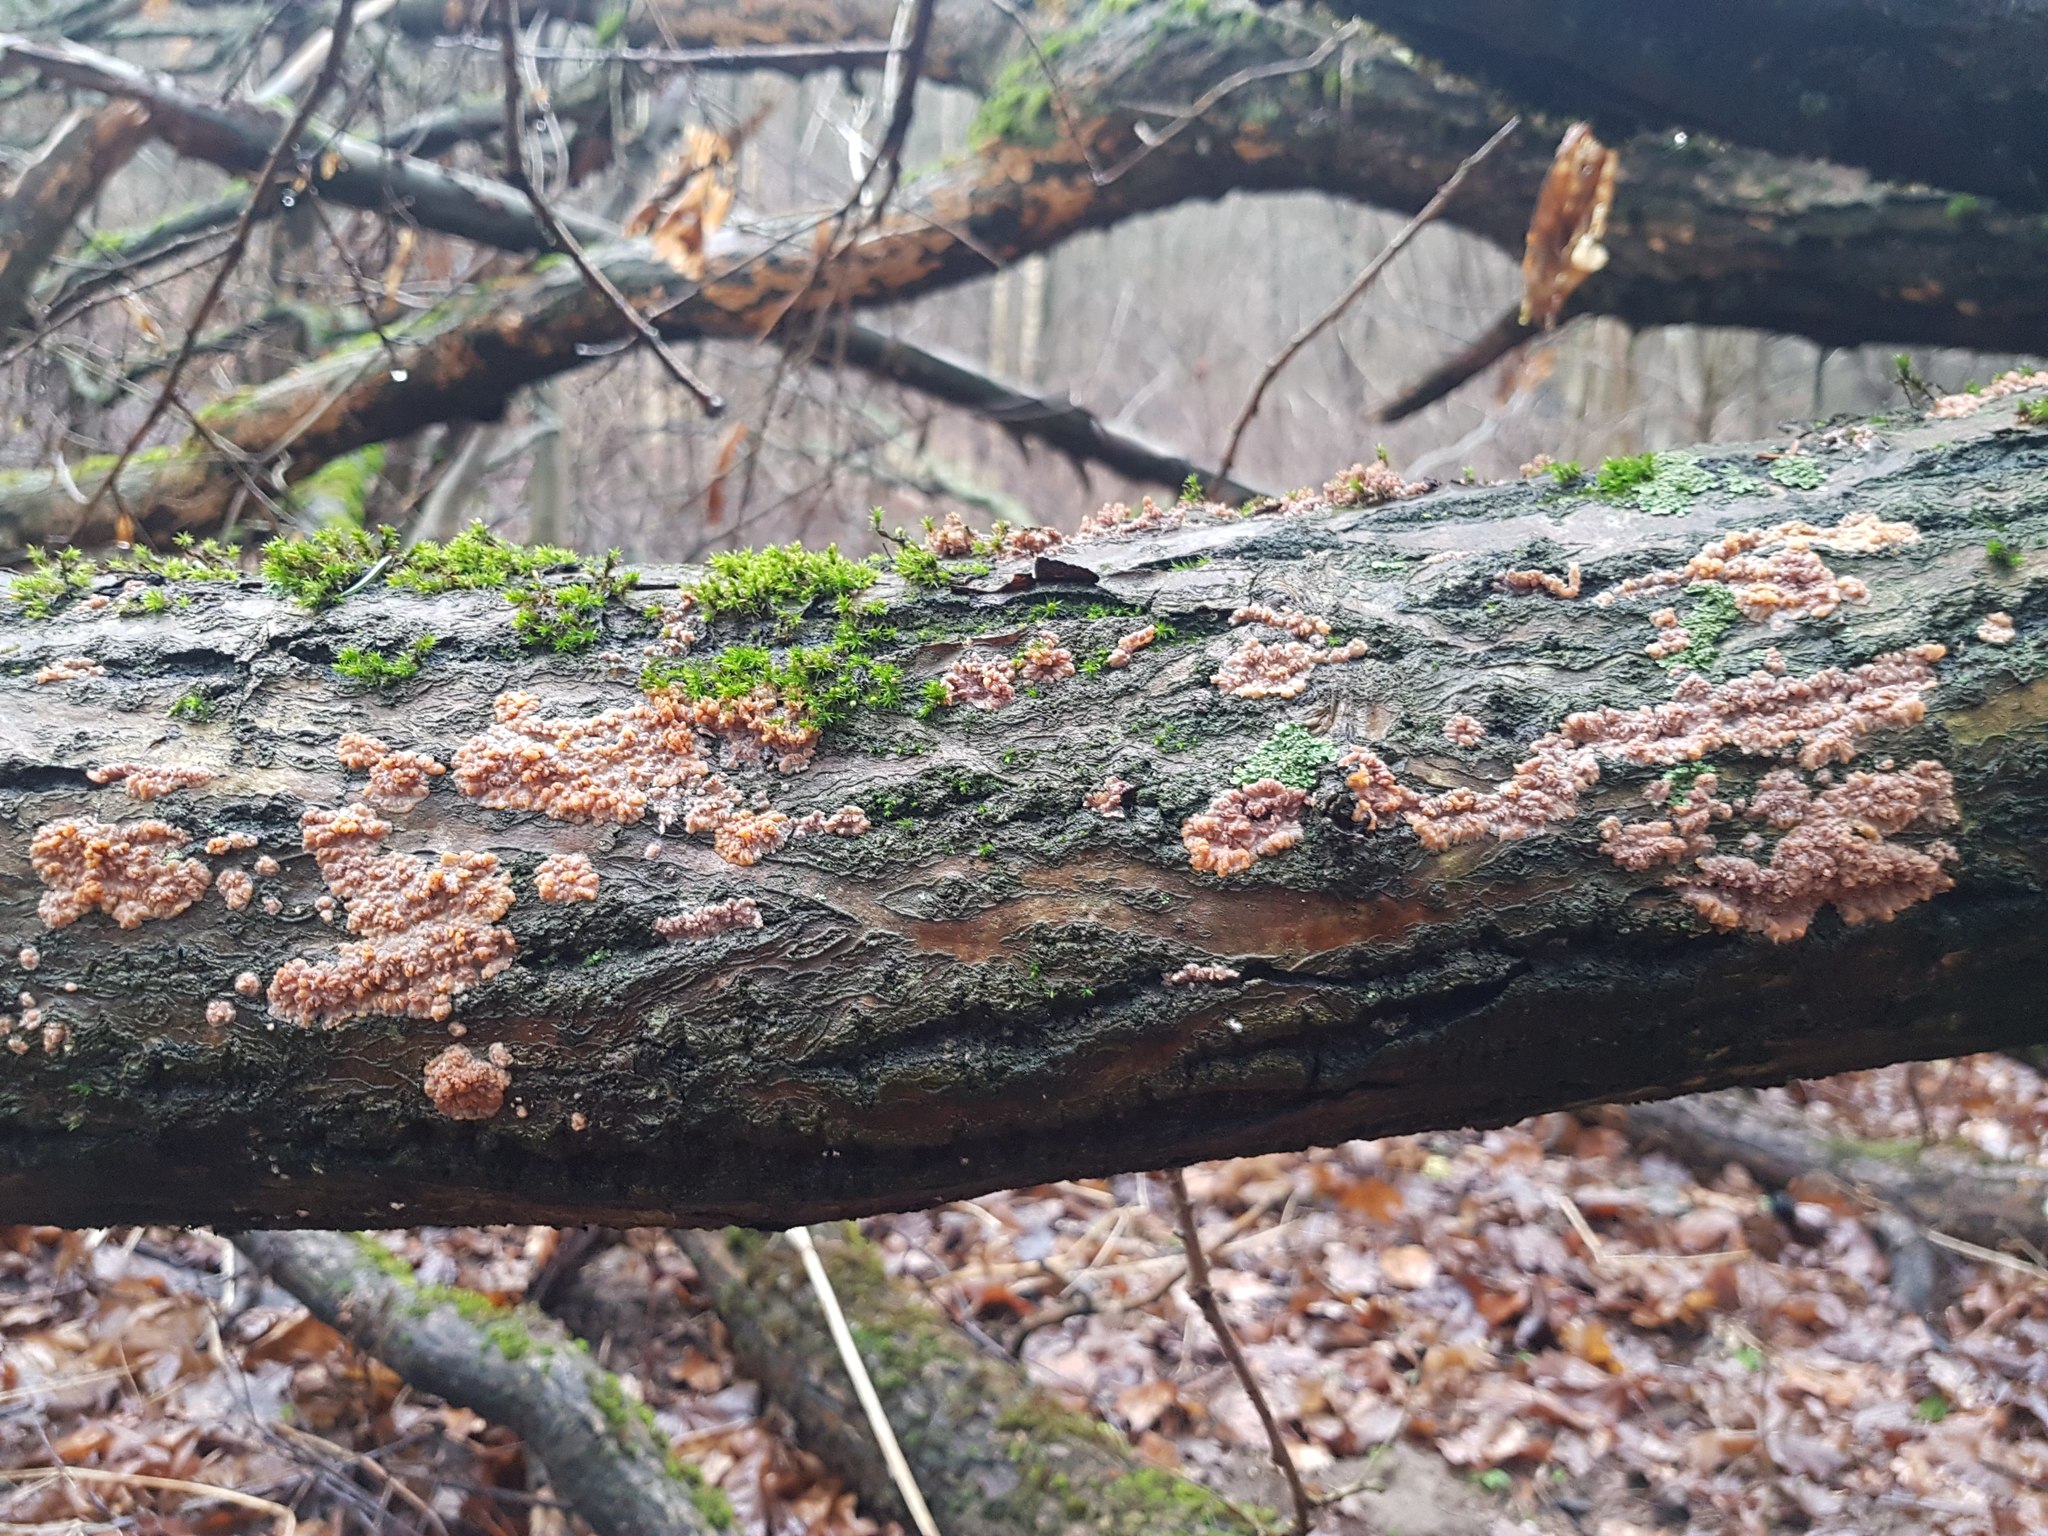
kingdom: Fungi
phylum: Basidiomycota
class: Agaricomycetes
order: Polyporales
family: Meruliaceae
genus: Phlebia
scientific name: Phlebia radiata
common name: Wrinkled crust
